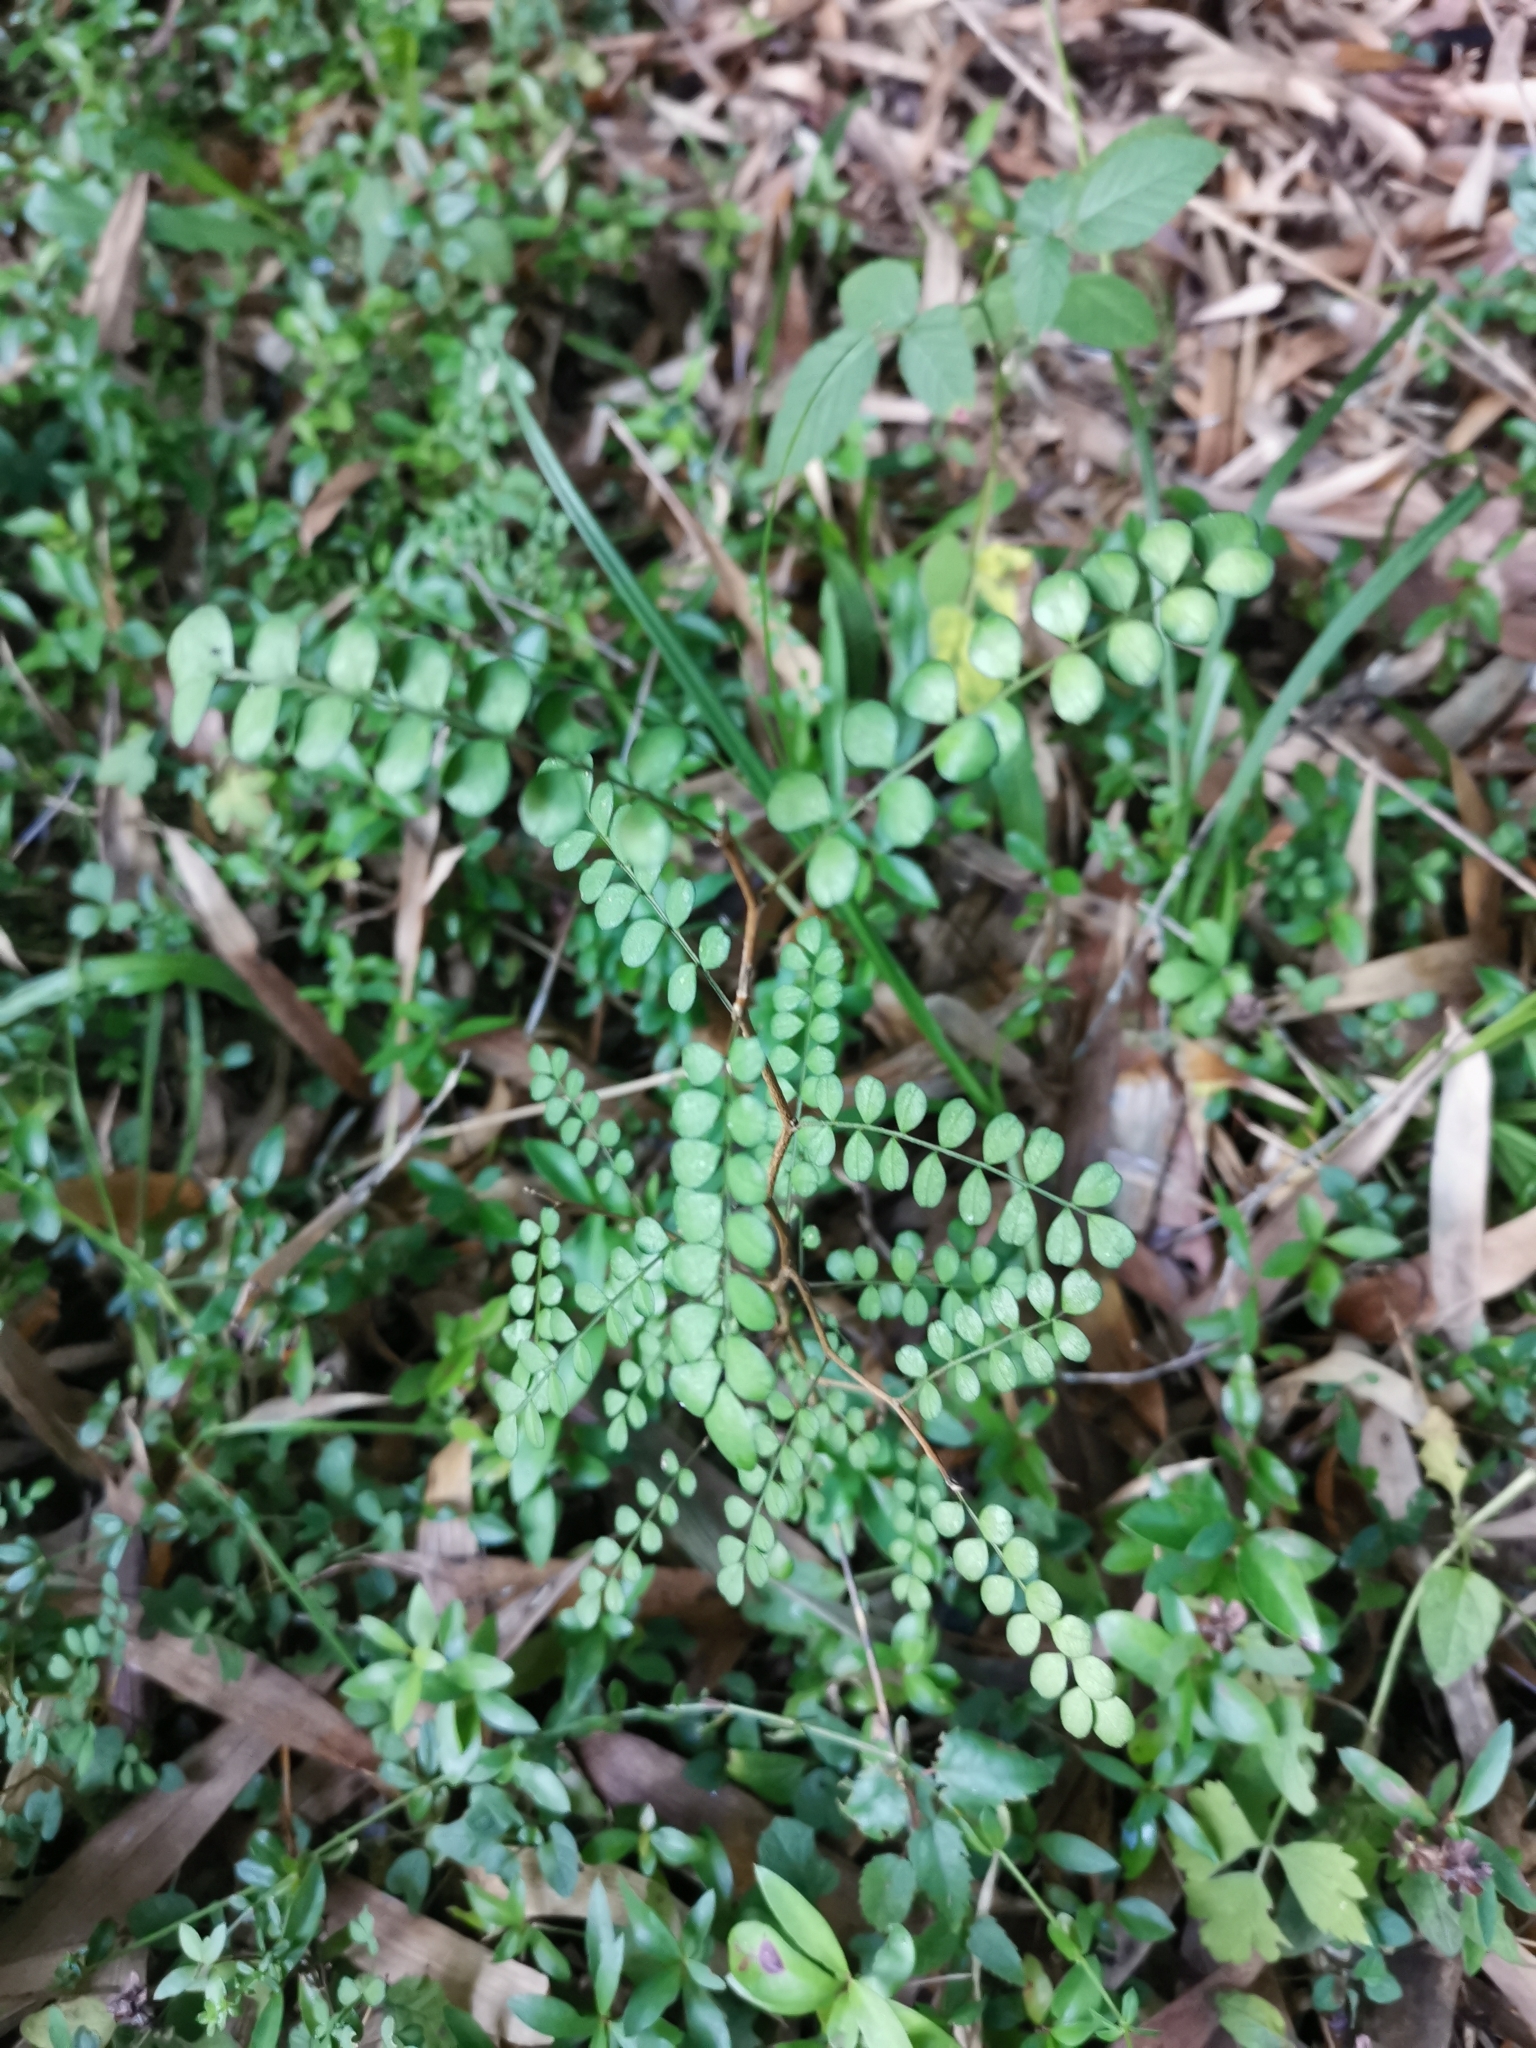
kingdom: Plantae
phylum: Tracheophyta
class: Magnoliopsida
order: Fabales
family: Fabaceae
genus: Sophora
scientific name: Sophora cassioides
